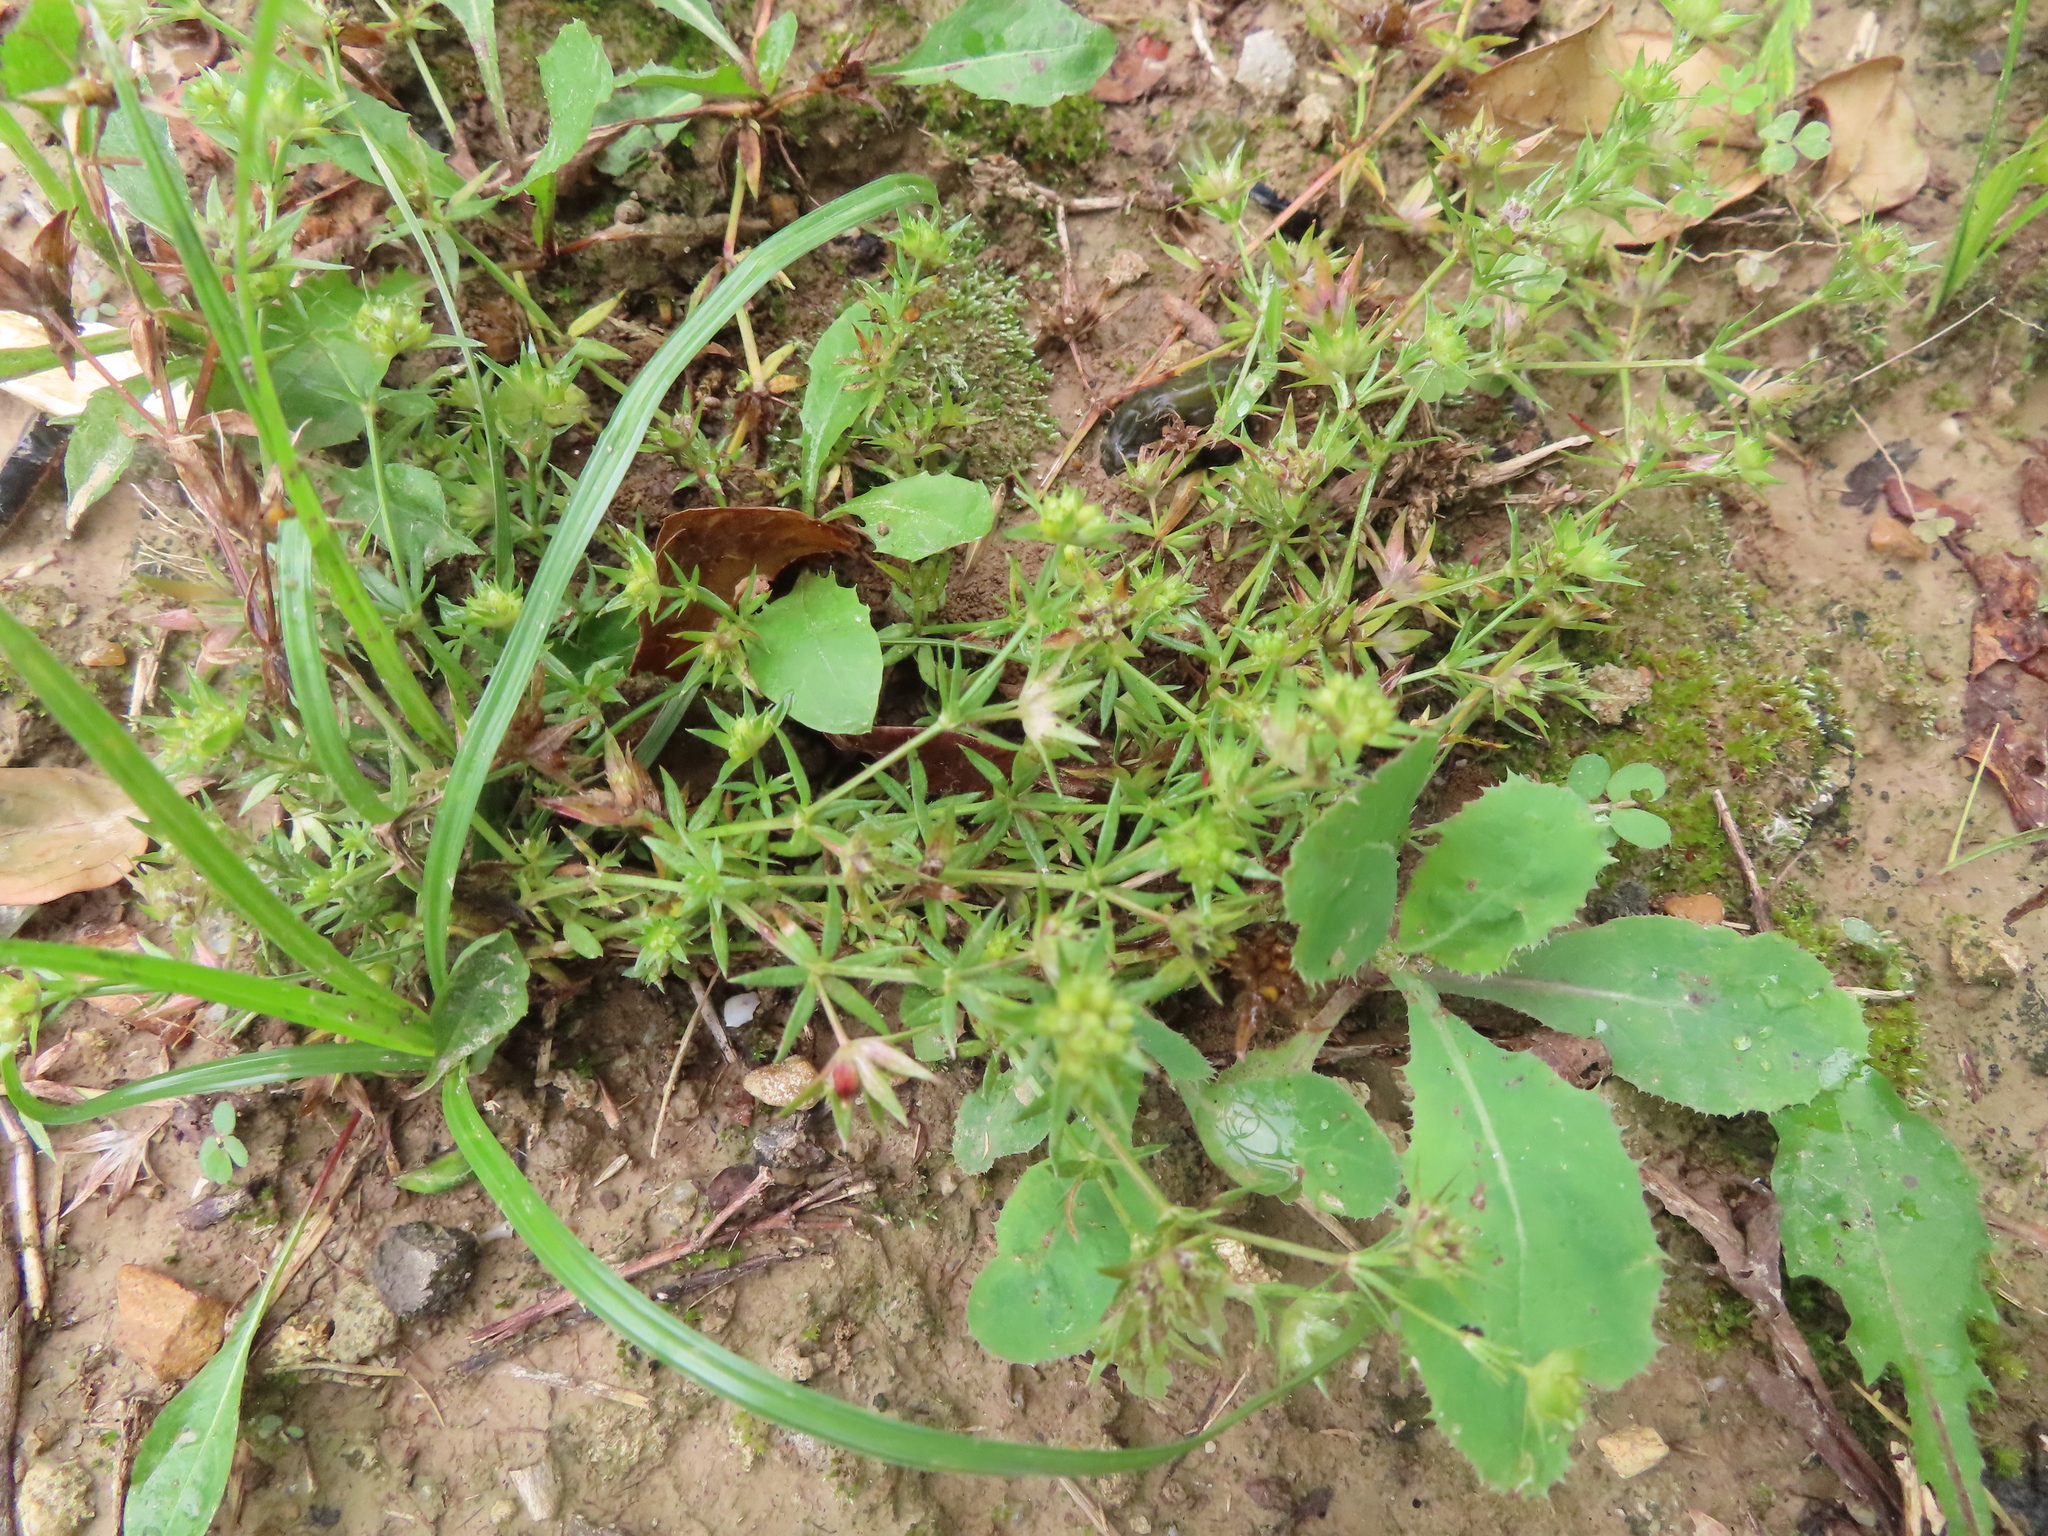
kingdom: Plantae
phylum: Tracheophyta
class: Magnoliopsida
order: Gentianales
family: Rubiaceae
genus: Sherardia
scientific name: Sherardia arvensis
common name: Field madder
